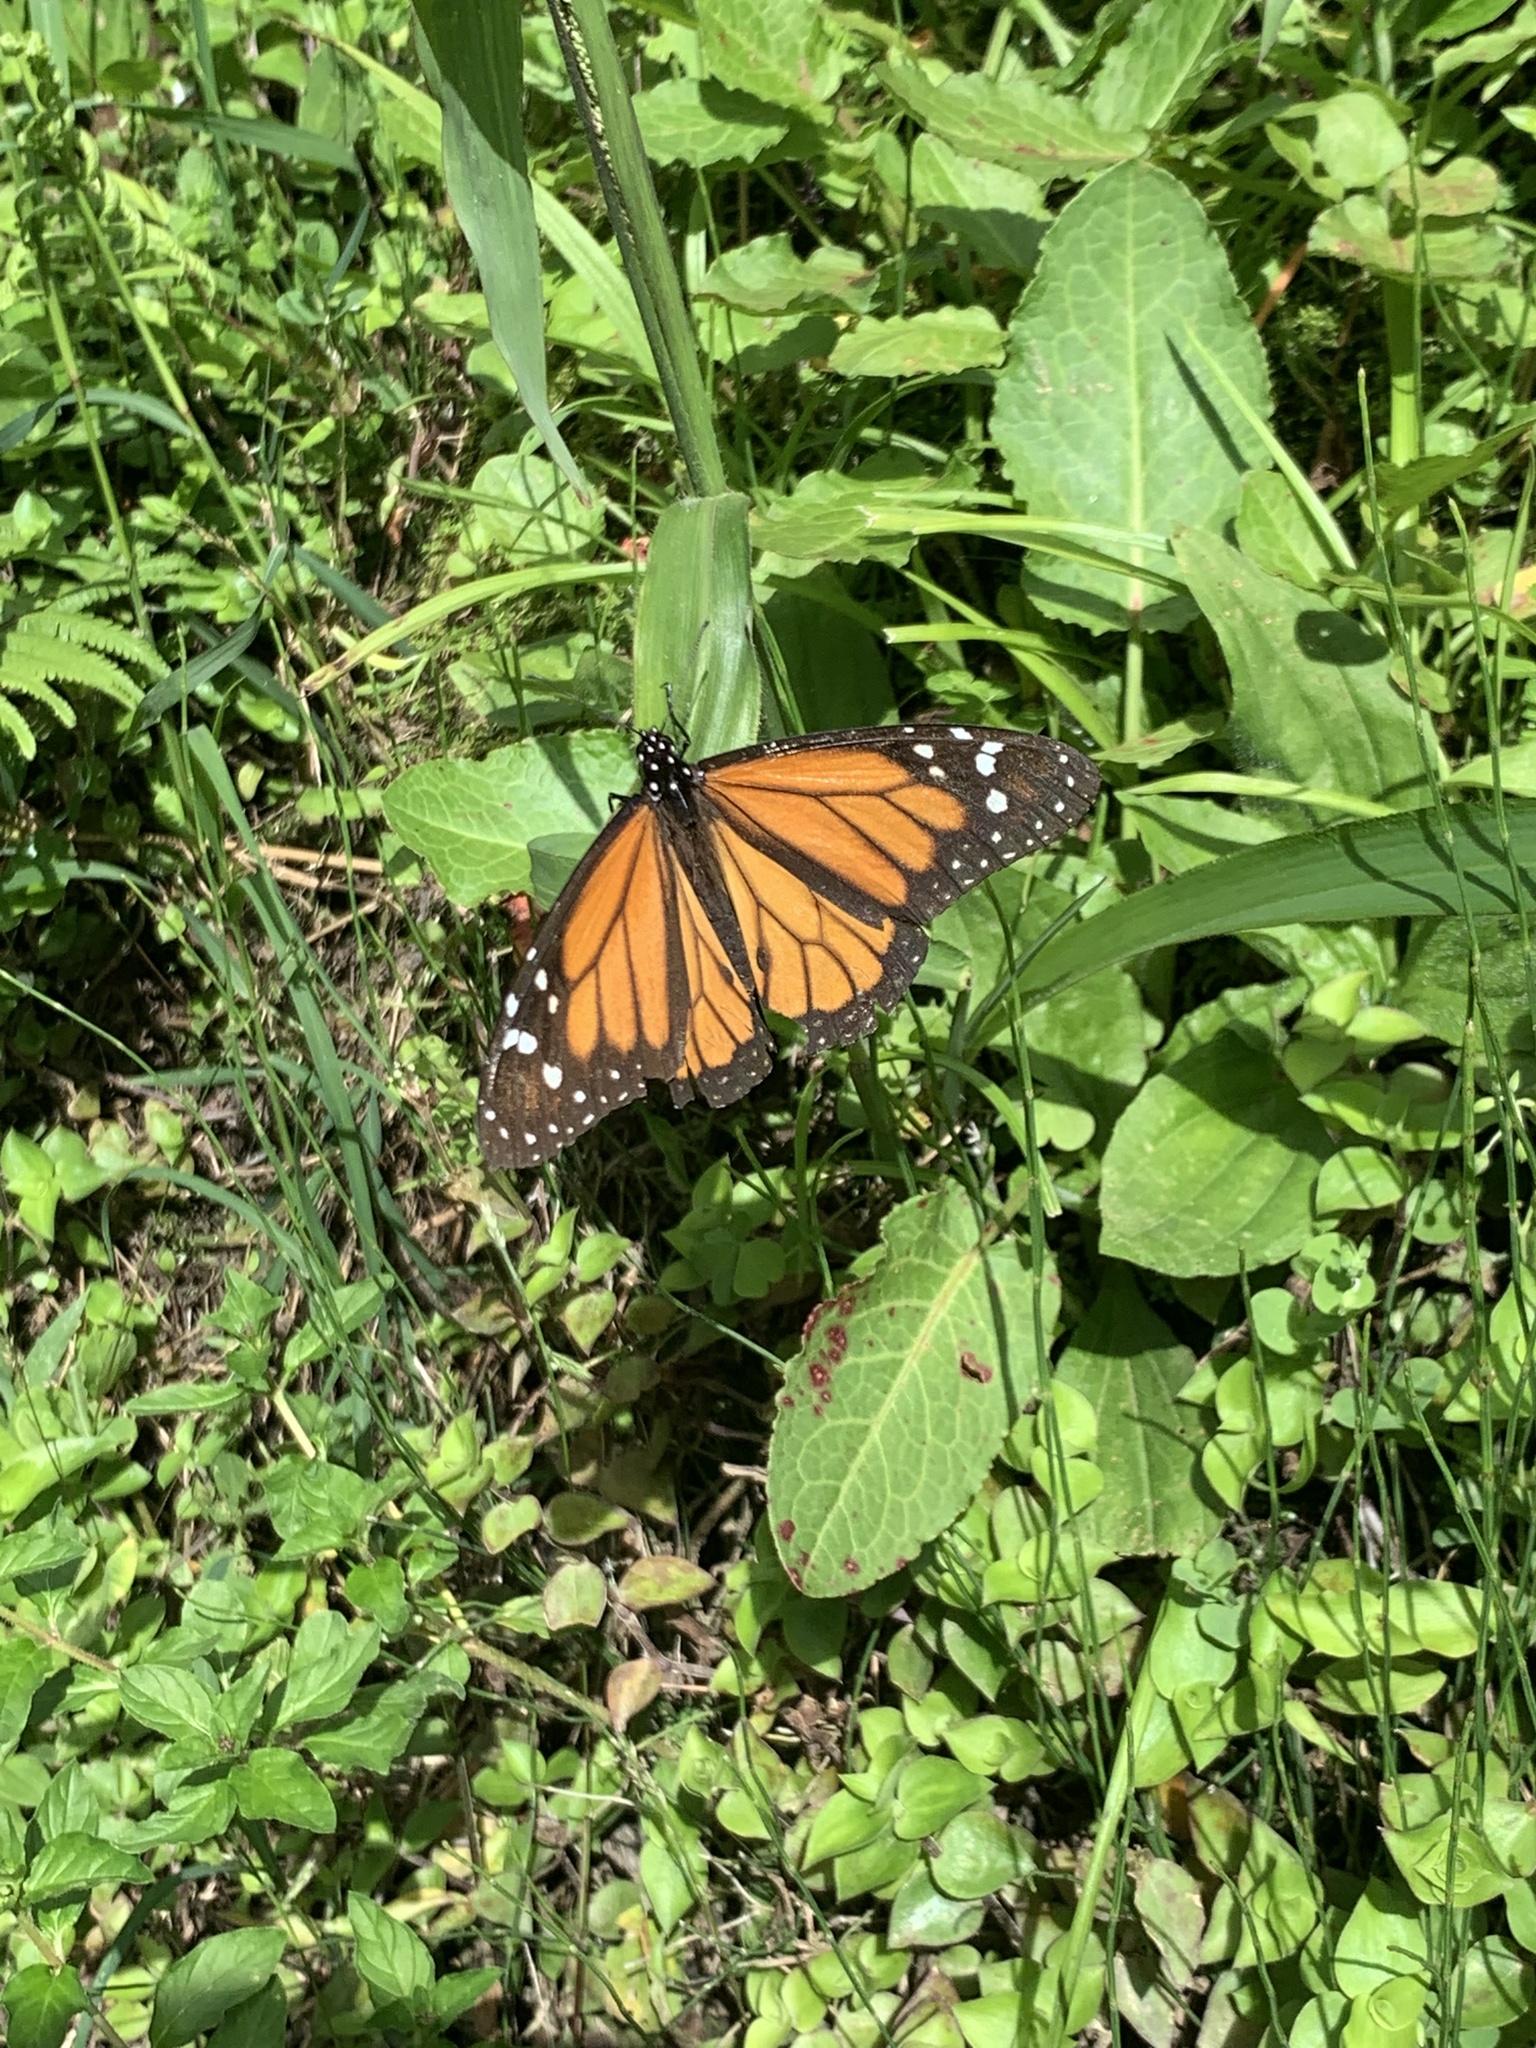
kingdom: Animalia
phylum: Arthropoda
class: Insecta
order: Lepidoptera
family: Nymphalidae
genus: Danaus
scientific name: Danaus plexippus
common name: Monarch
